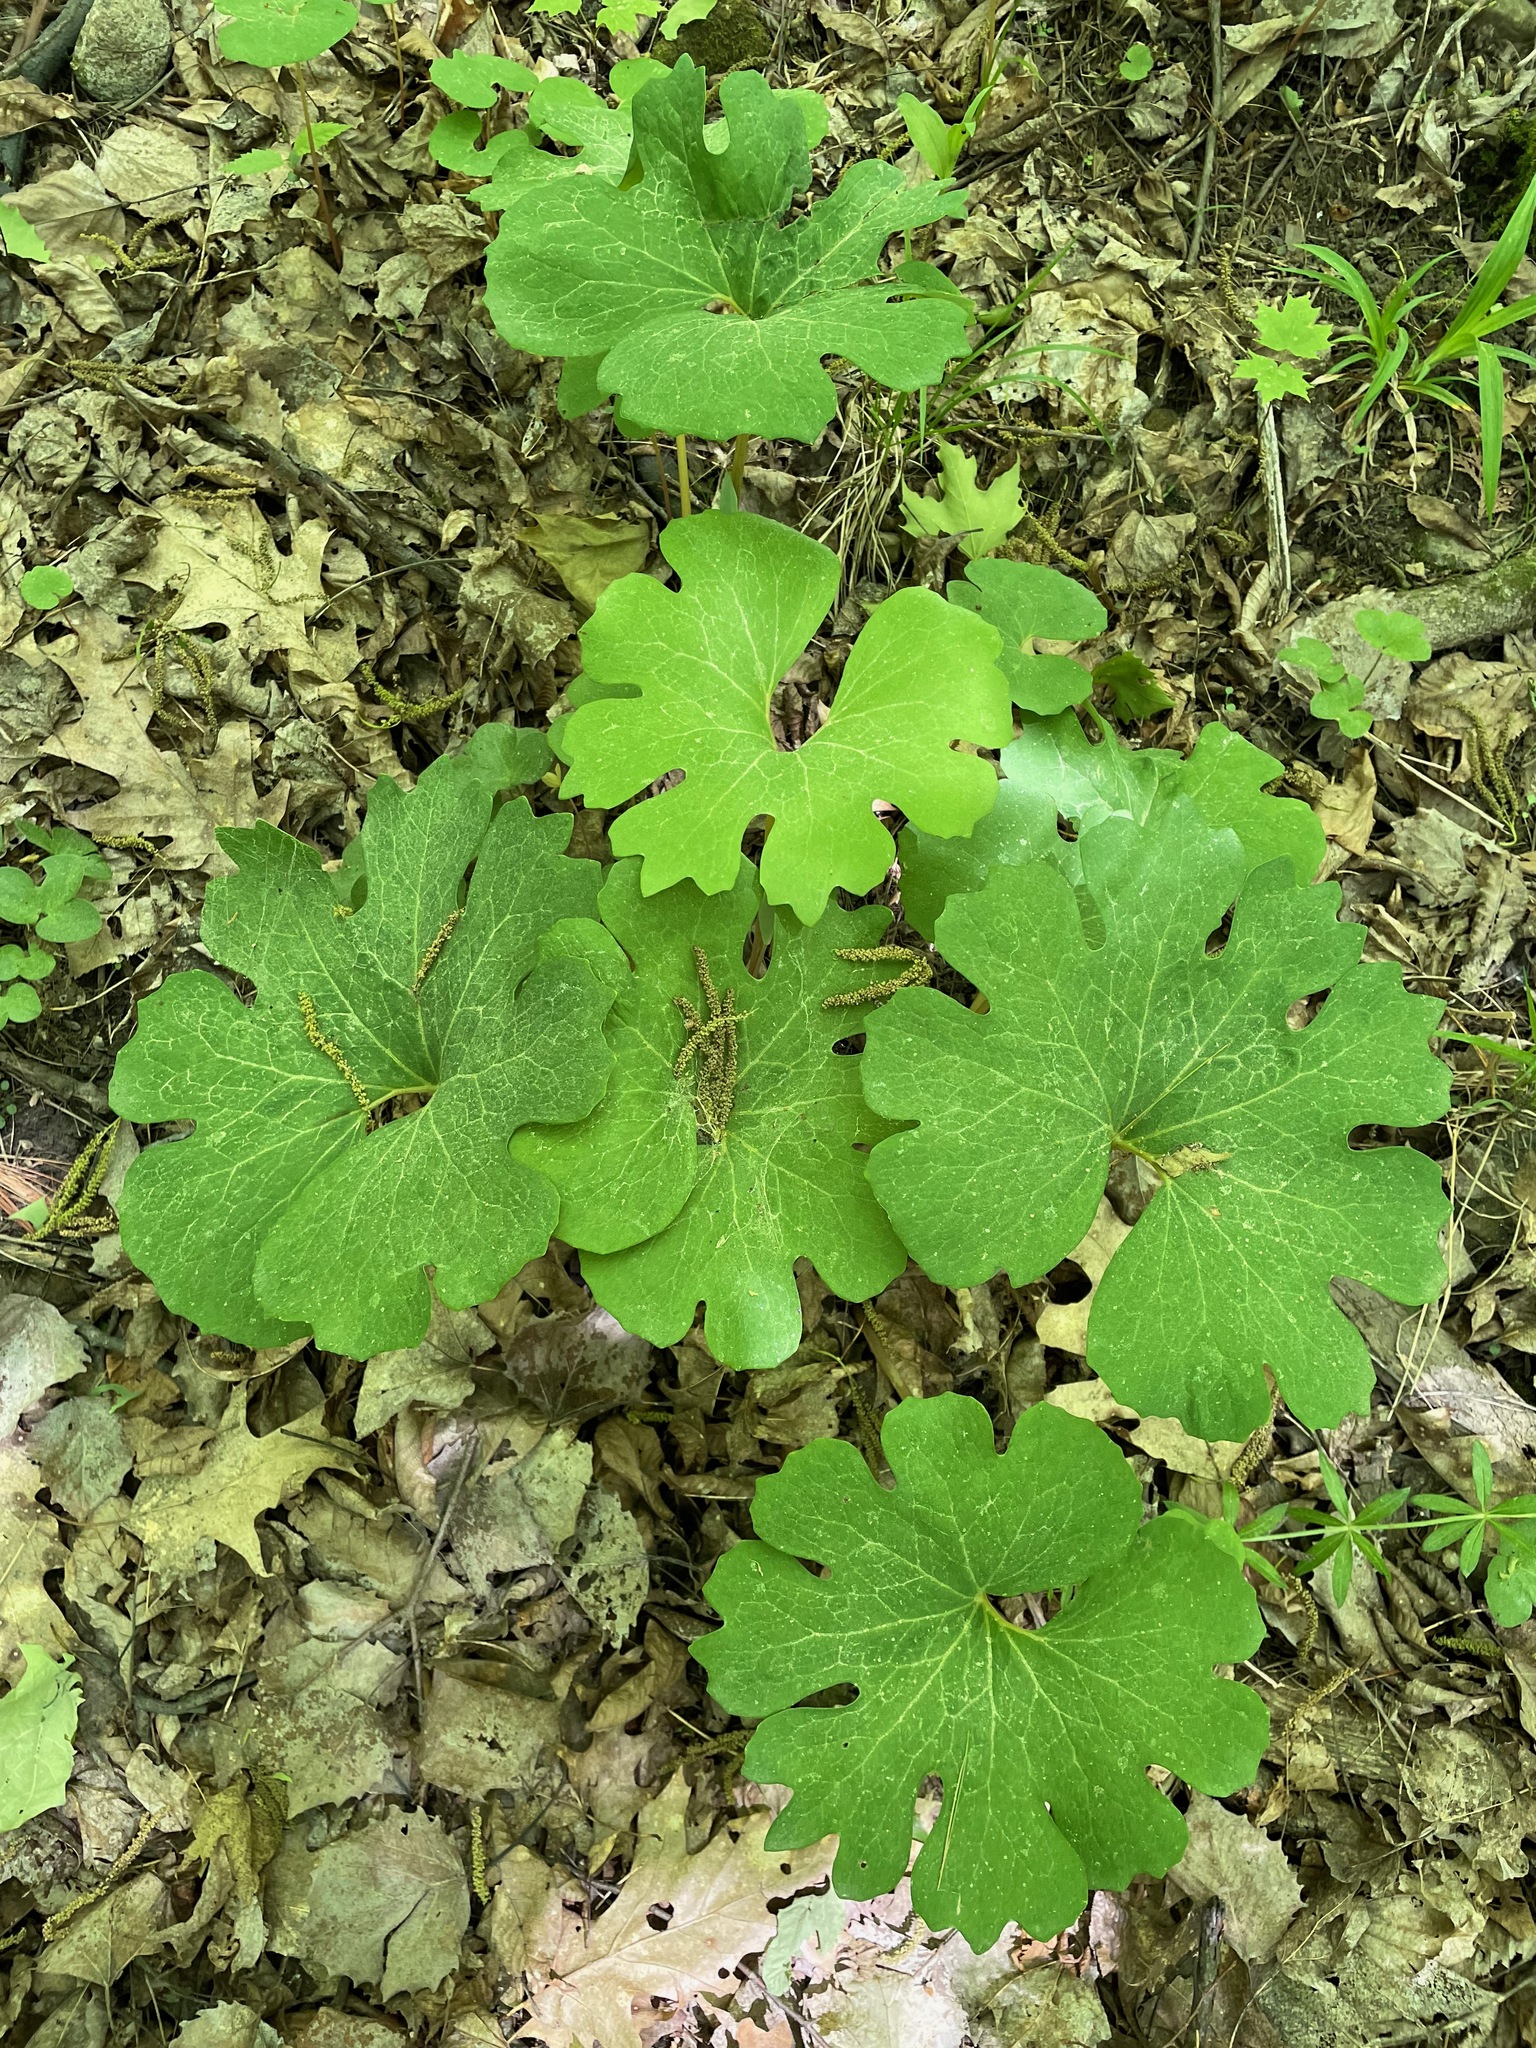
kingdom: Plantae
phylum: Tracheophyta
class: Magnoliopsida
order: Ranunculales
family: Papaveraceae
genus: Sanguinaria
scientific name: Sanguinaria canadensis
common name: Bloodroot
